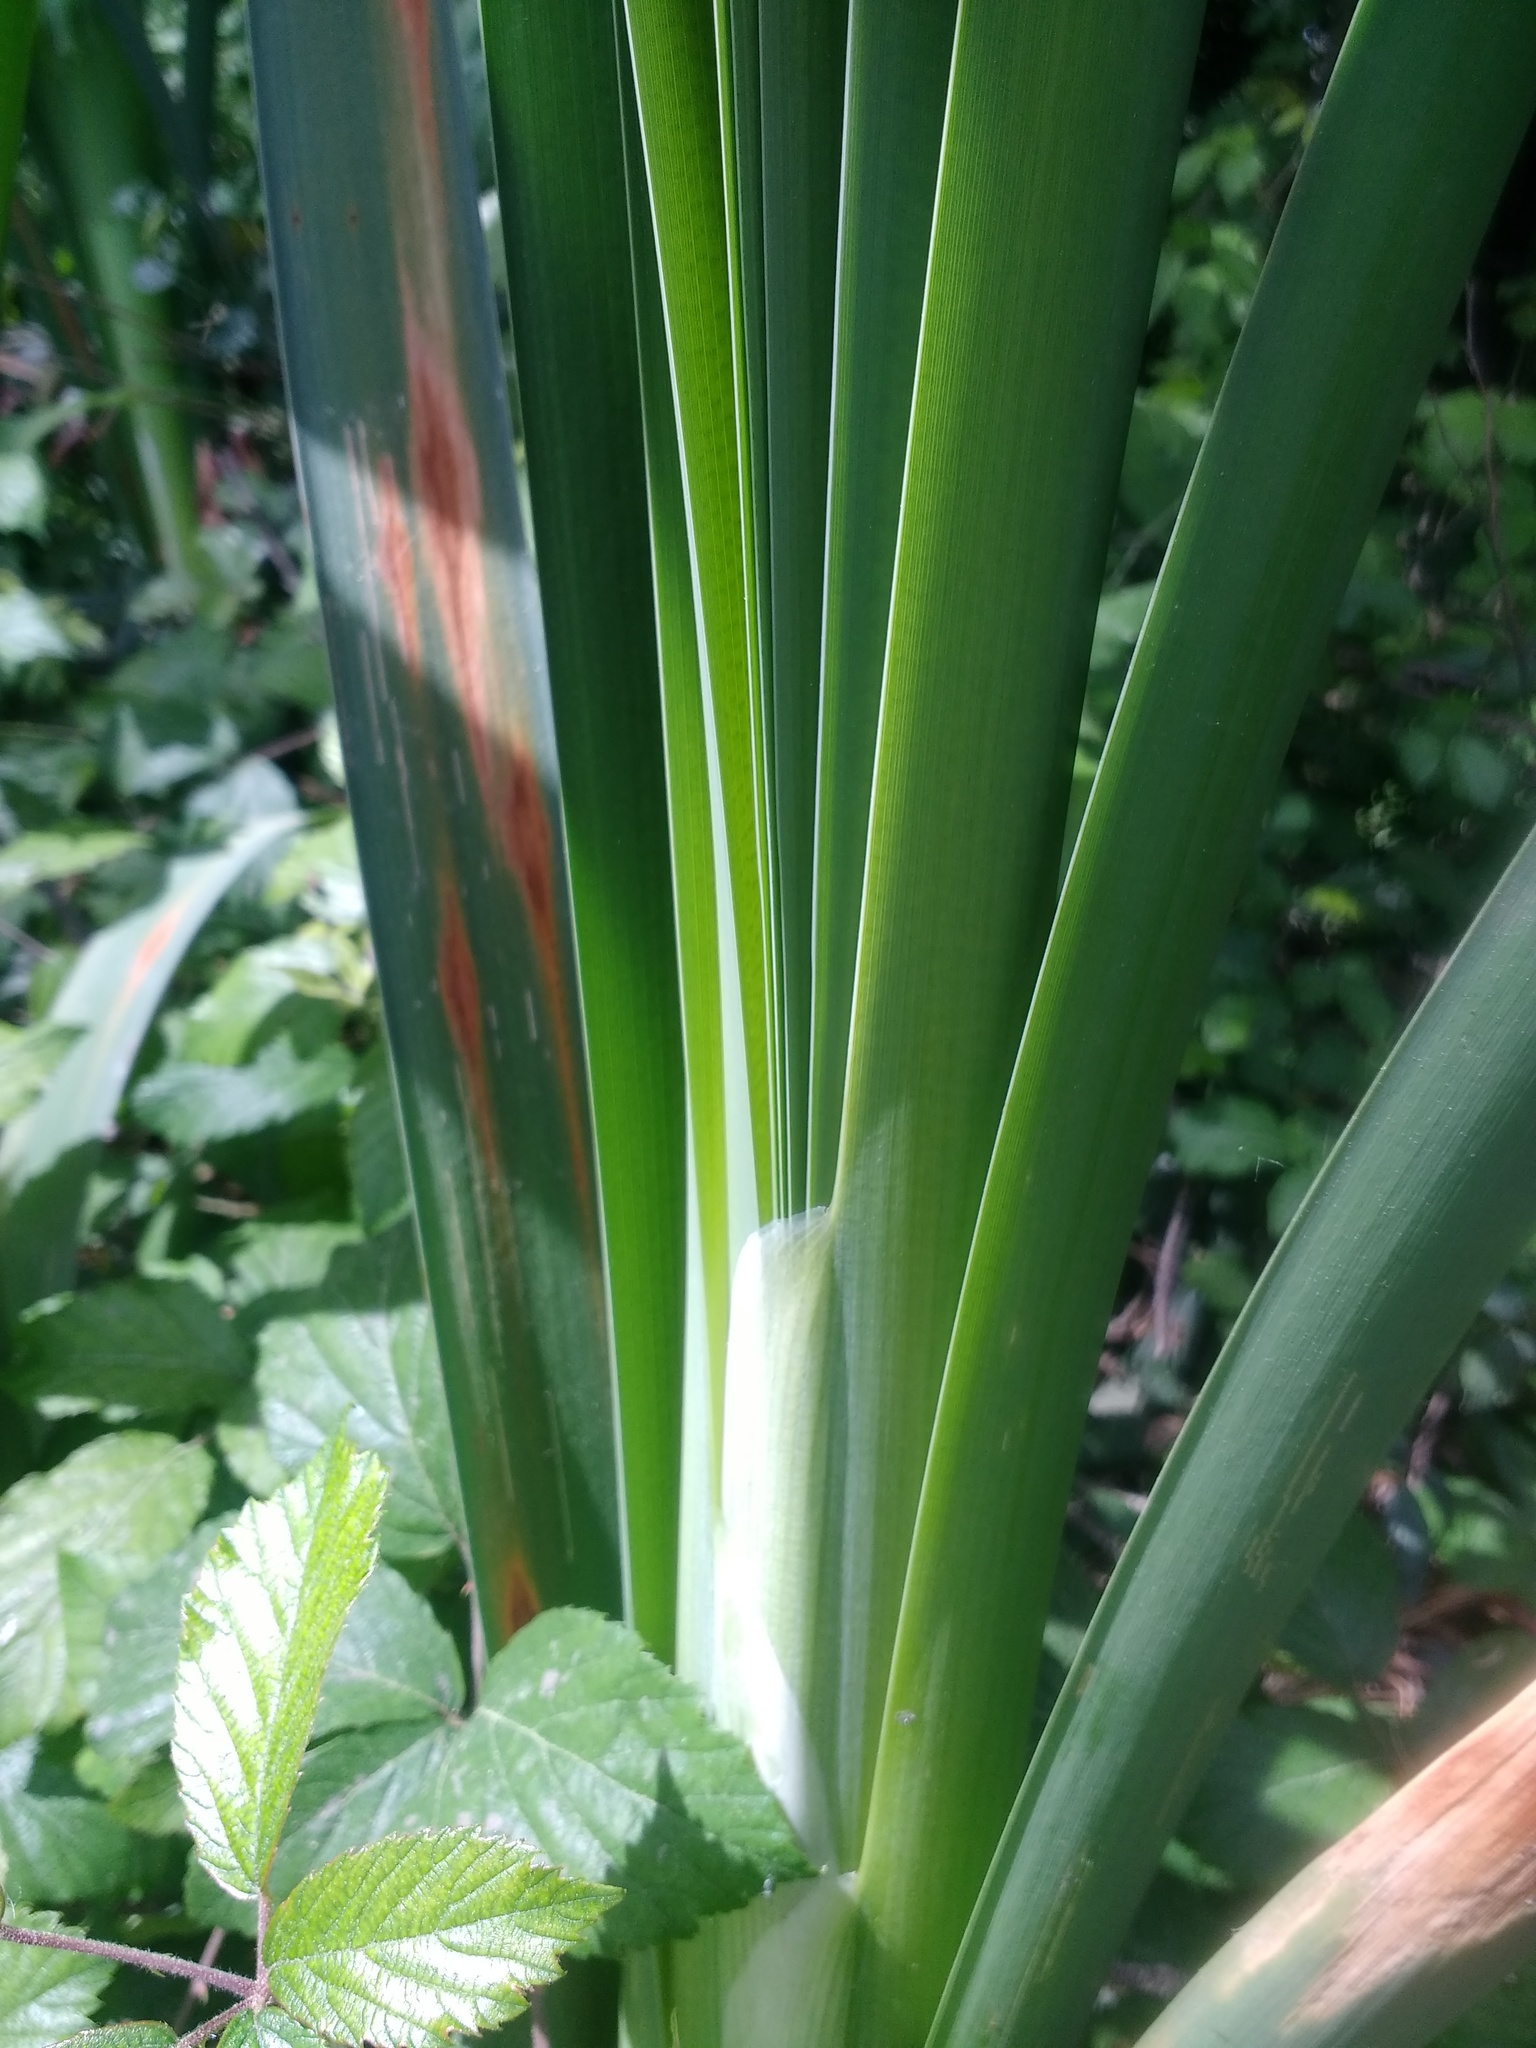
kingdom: Plantae
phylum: Tracheophyta
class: Liliopsida
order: Poales
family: Typhaceae
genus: Typha
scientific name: Typha latifolia
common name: Broadleaf cattail
